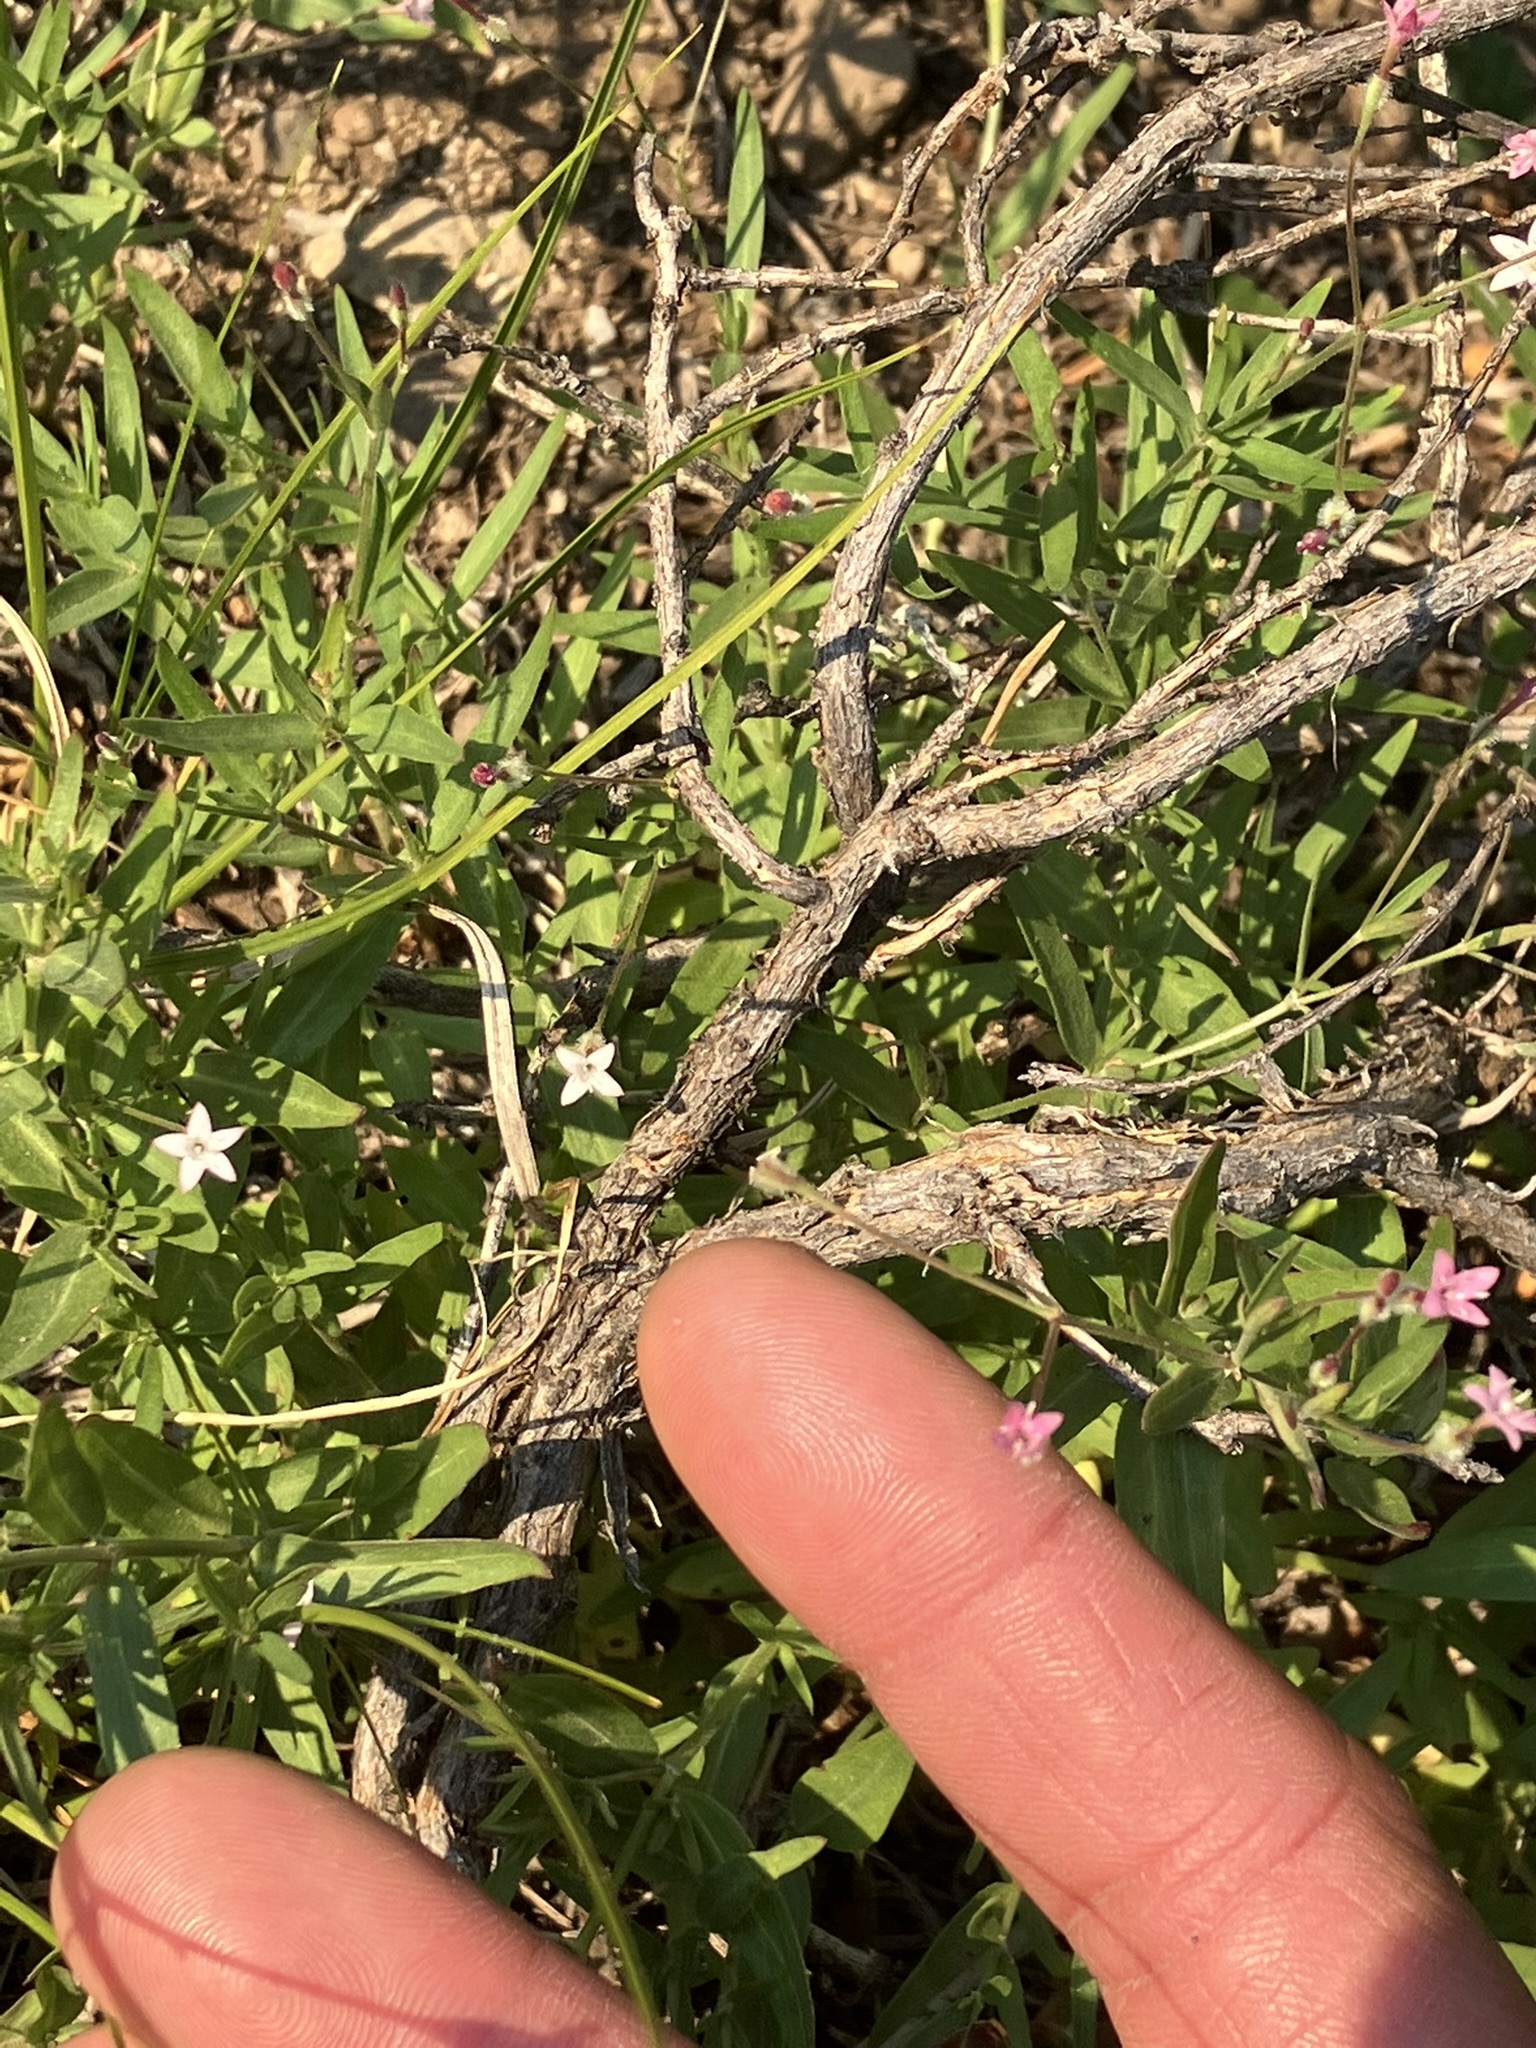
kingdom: Plantae
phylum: Tracheophyta
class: Magnoliopsida
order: Gentianales
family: Rubiaceae
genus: Kelloggia
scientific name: Kelloggia galioides
